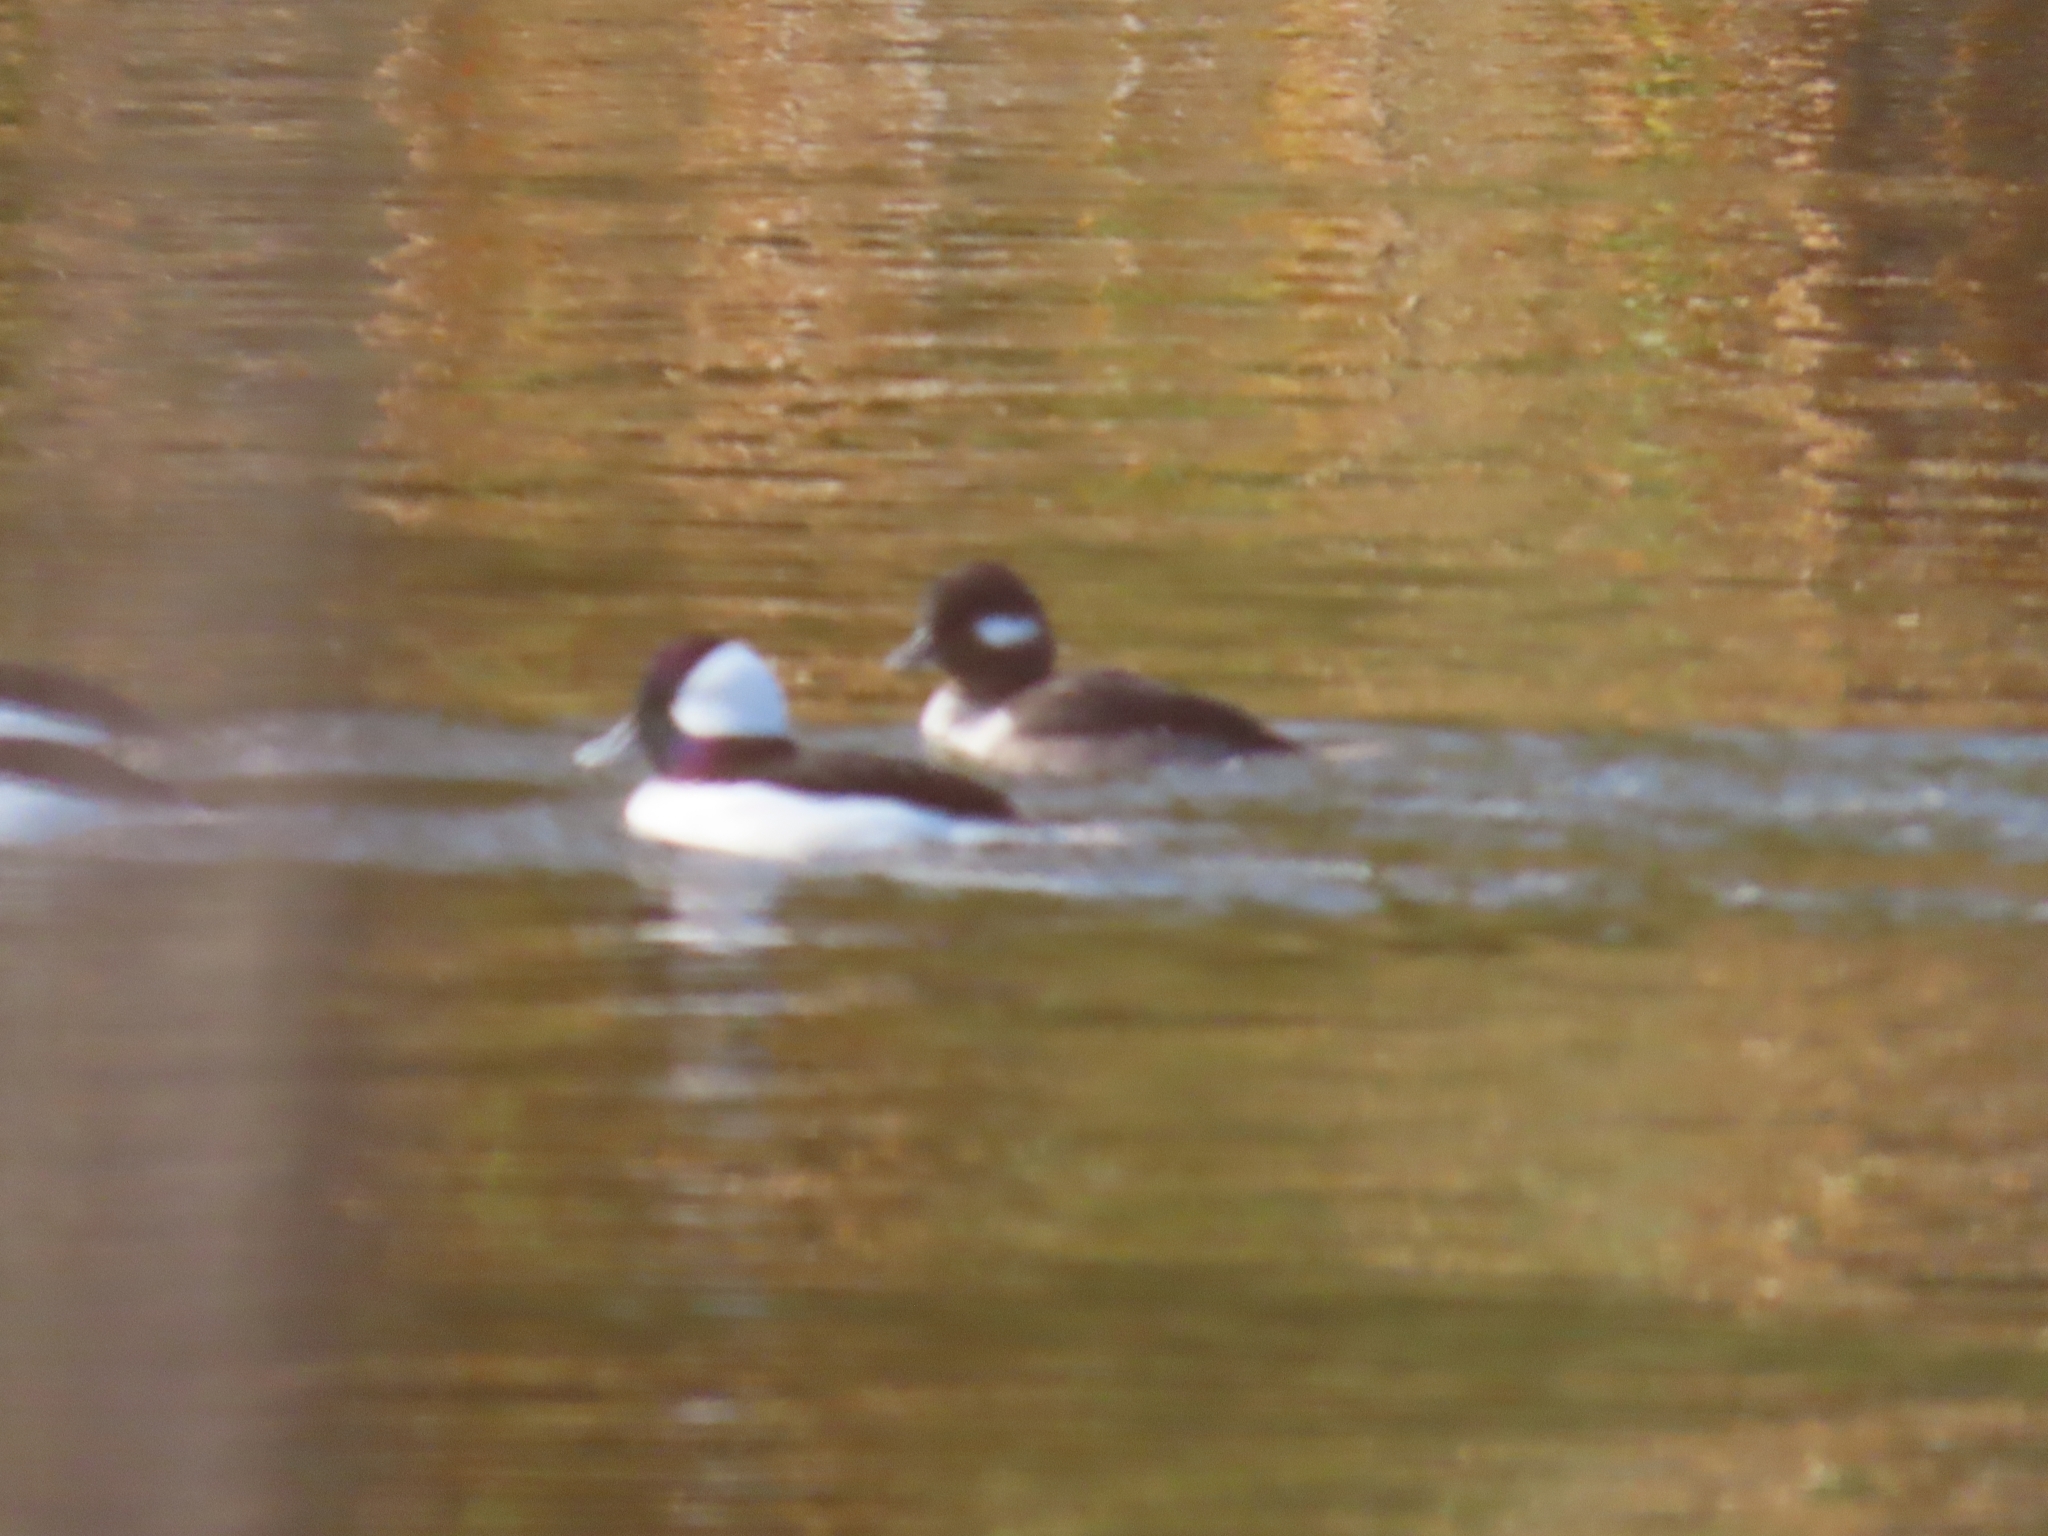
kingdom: Animalia
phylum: Chordata
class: Aves
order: Anseriformes
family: Anatidae
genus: Bucephala
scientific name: Bucephala albeola
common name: Bufflehead
